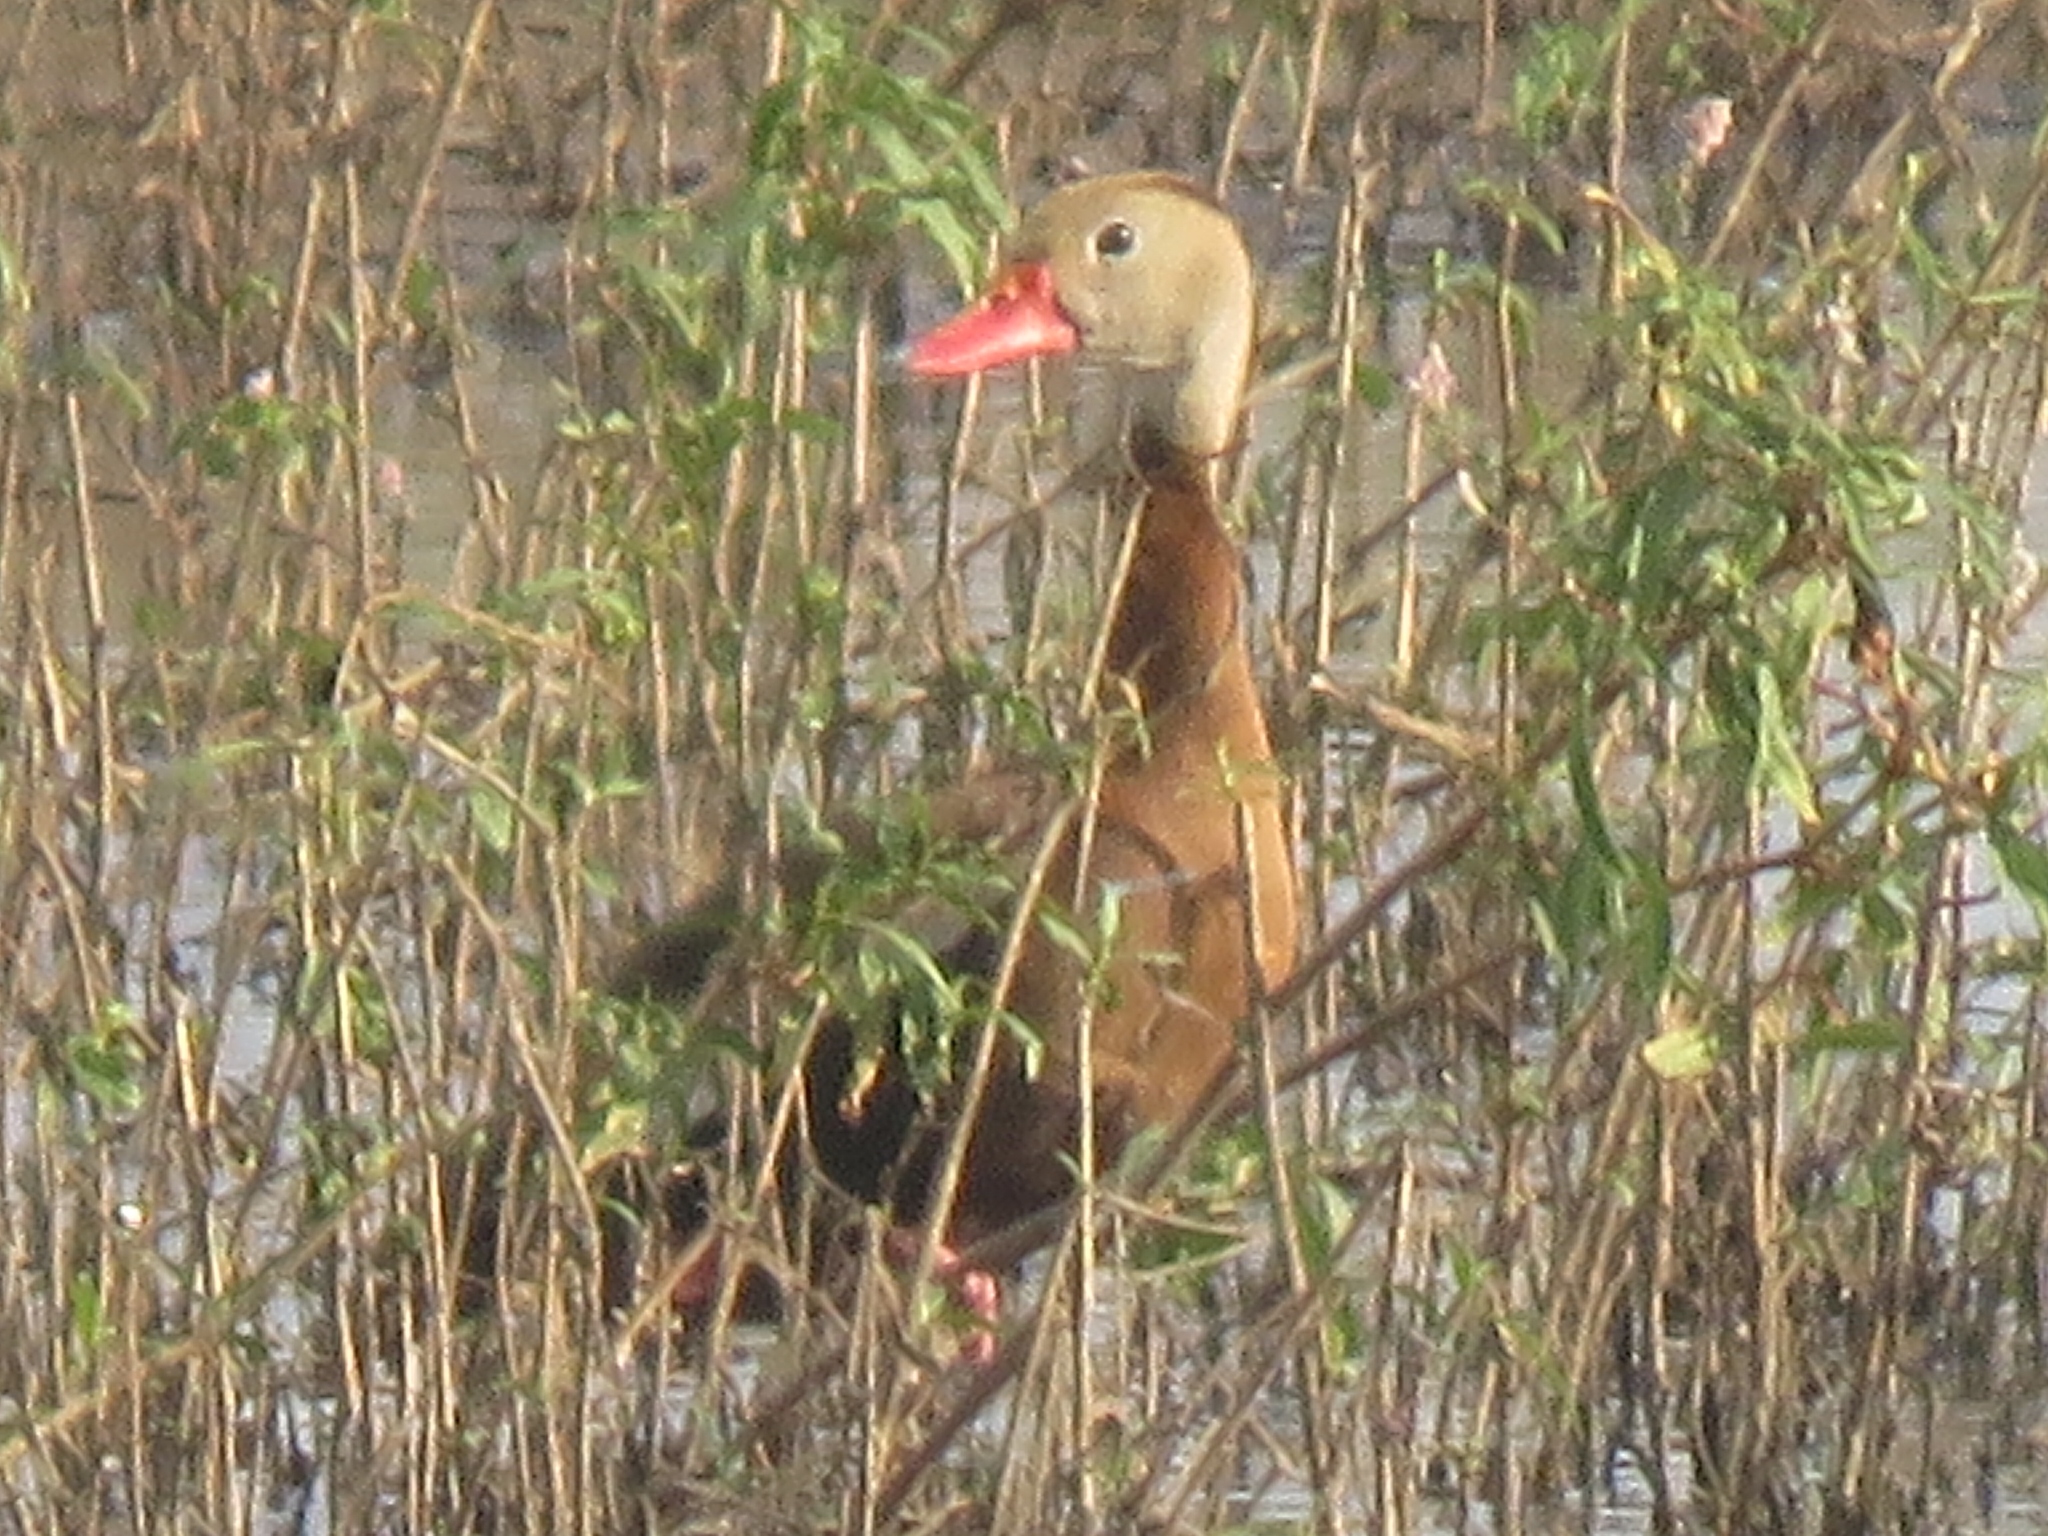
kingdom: Animalia
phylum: Chordata
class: Aves
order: Anseriformes
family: Anatidae
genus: Dendrocygna
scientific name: Dendrocygna autumnalis
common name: Black-bellied whistling duck
